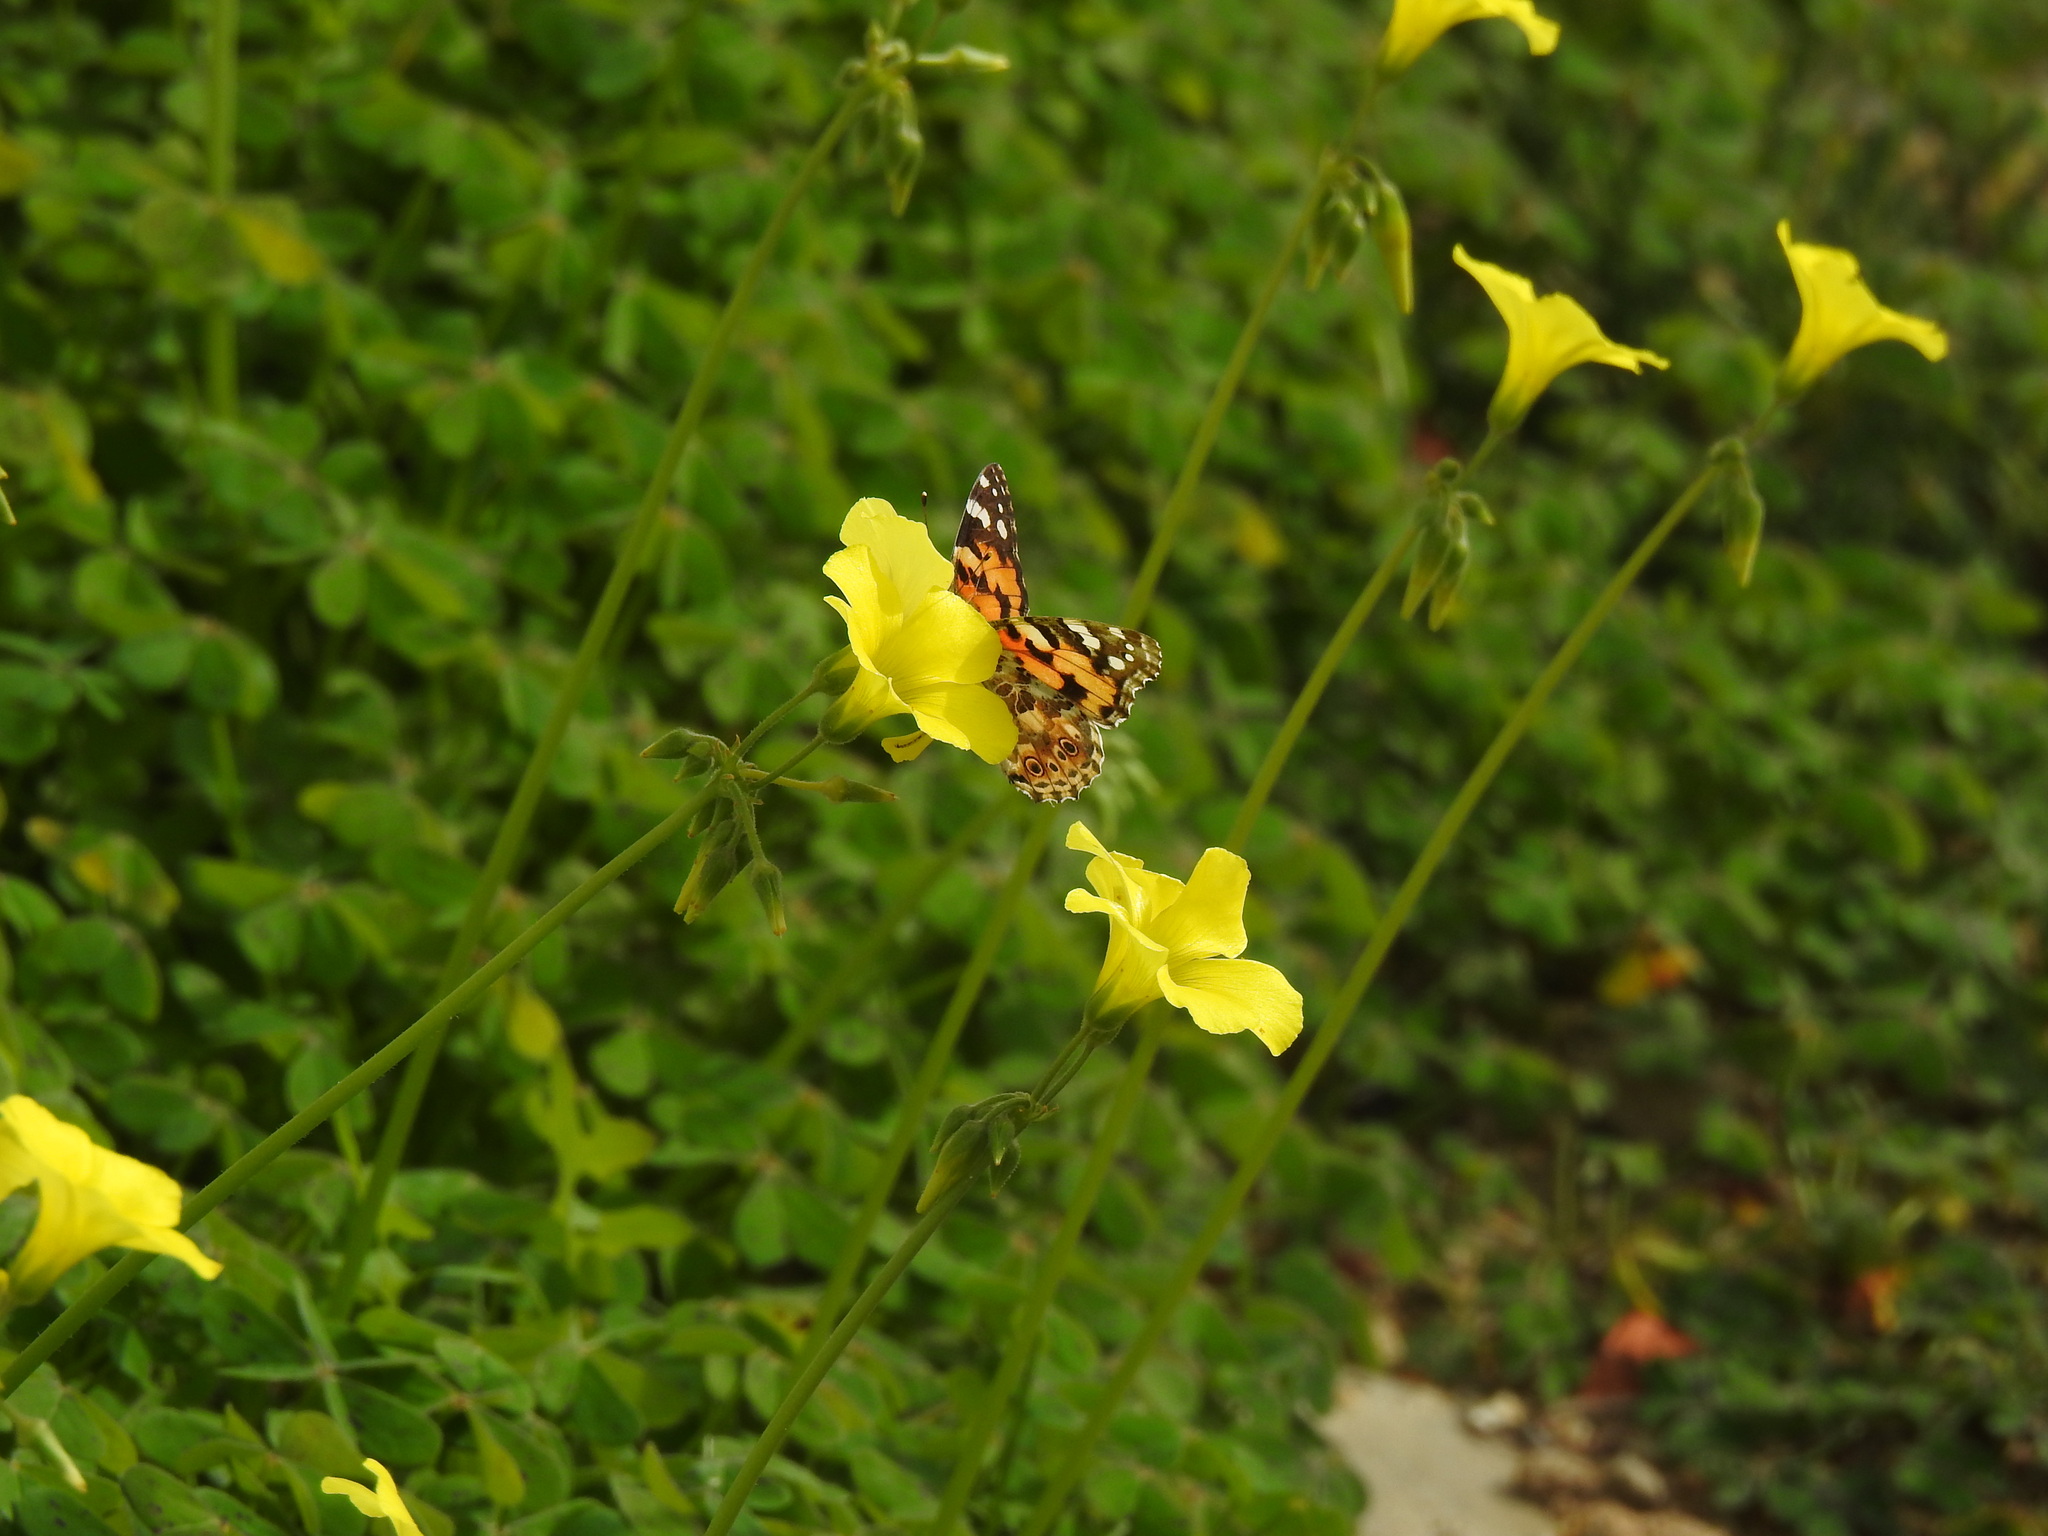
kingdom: Animalia
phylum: Arthropoda
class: Insecta
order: Lepidoptera
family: Nymphalidae
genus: Vanessa
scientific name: Vanessa cardui
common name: Painted lady
